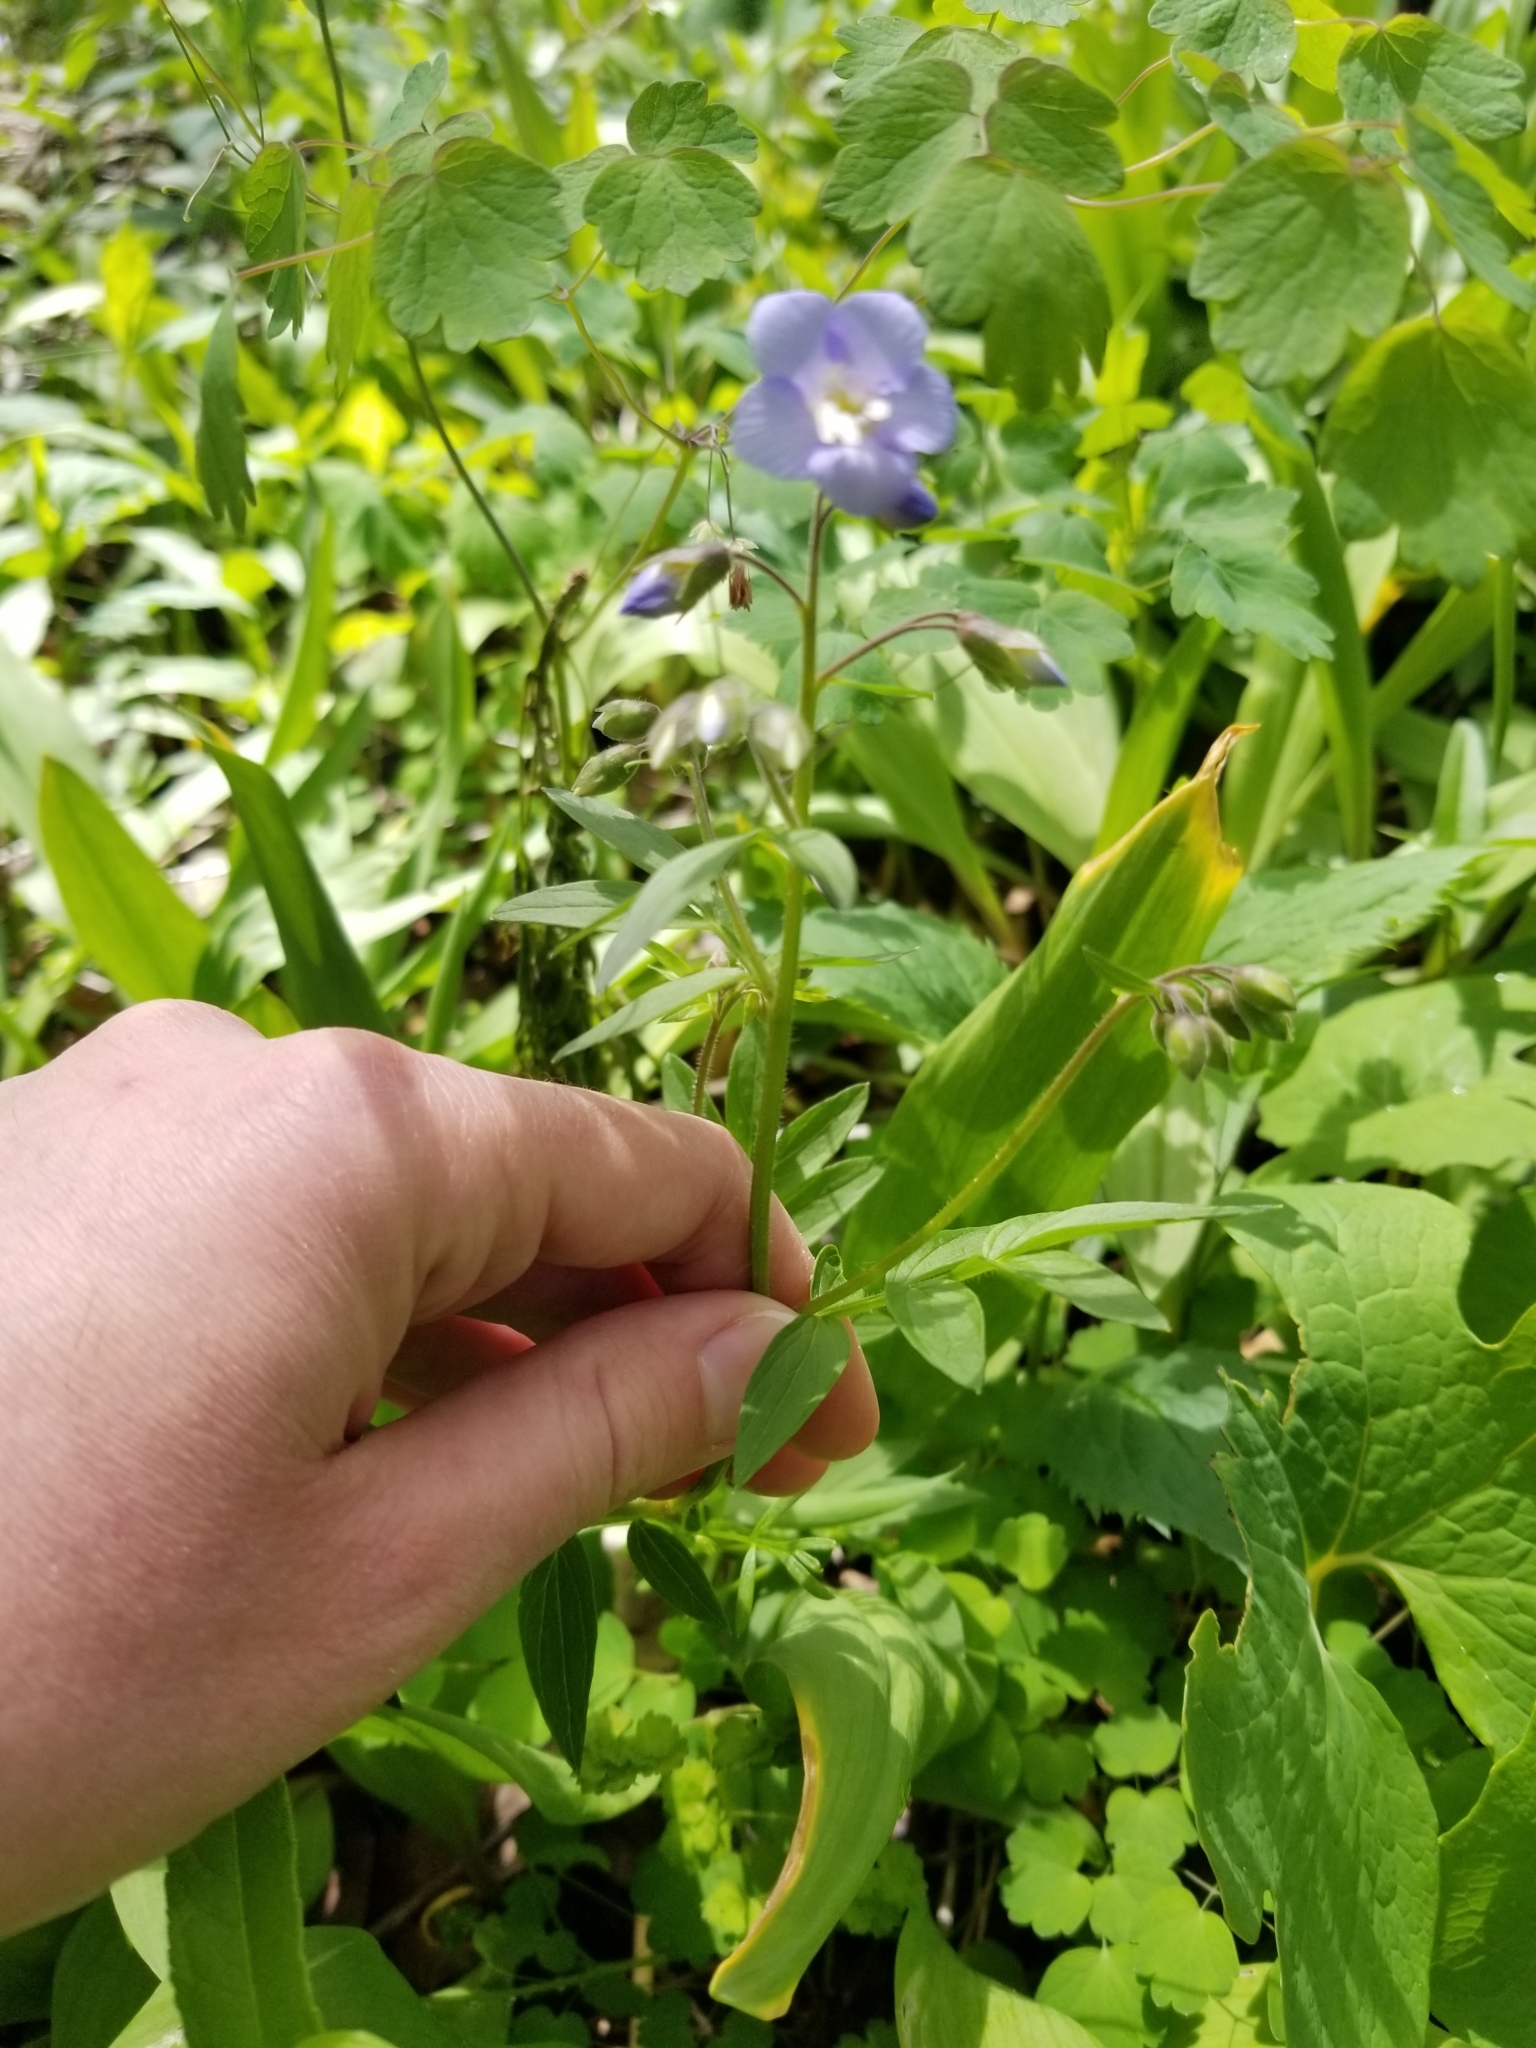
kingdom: Plantae
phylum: Tracheophyta
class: Magnoliopsida
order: Ericales
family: Polemoniaceae
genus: Polemonium
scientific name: Polemonium reptans
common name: Creeping jacob's-ladder
